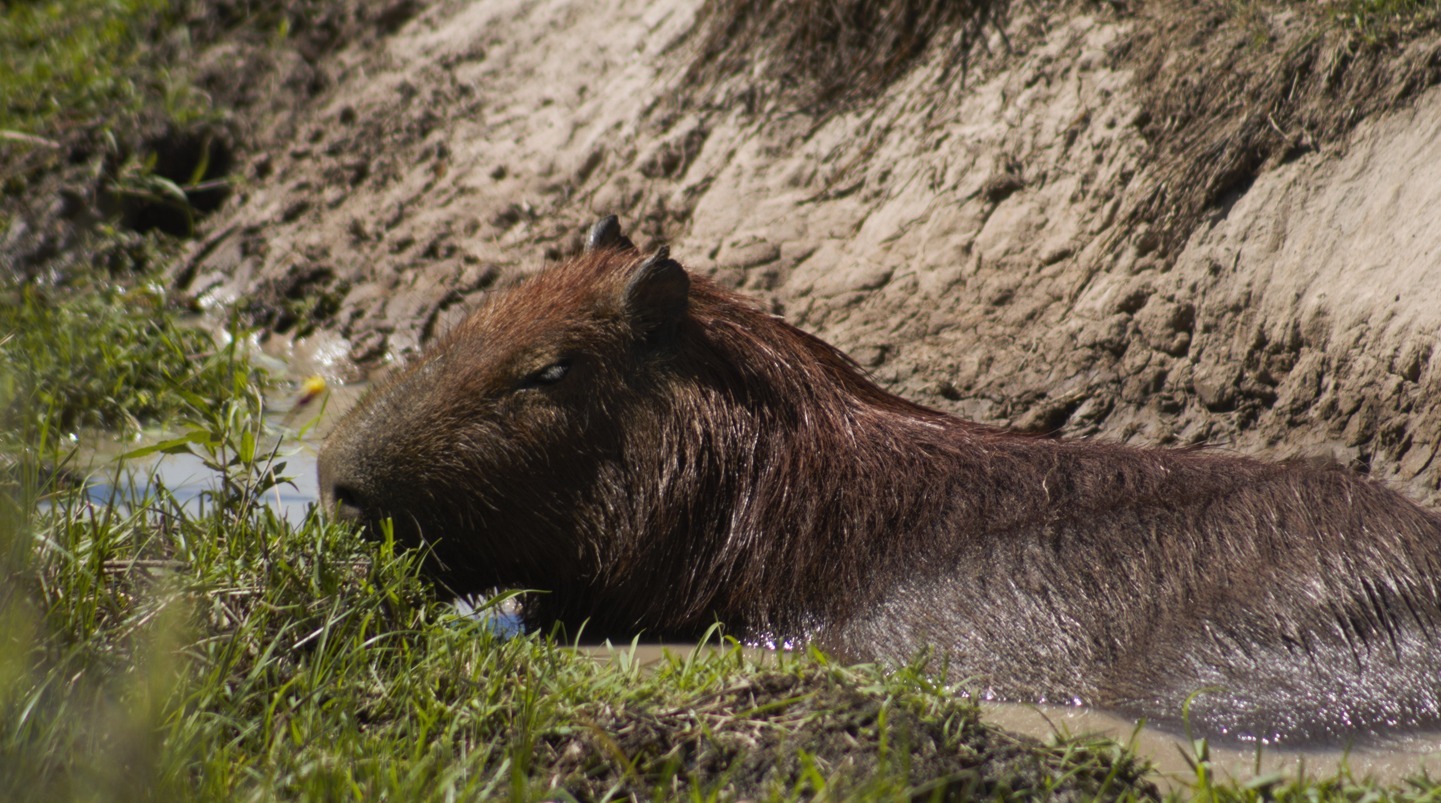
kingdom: Animalia
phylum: Chordata
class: Mammalia
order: Rodentia
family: Caviidae
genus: Hydrochoerus
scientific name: Hydrochoerus hydrochaeris
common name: Capybara
